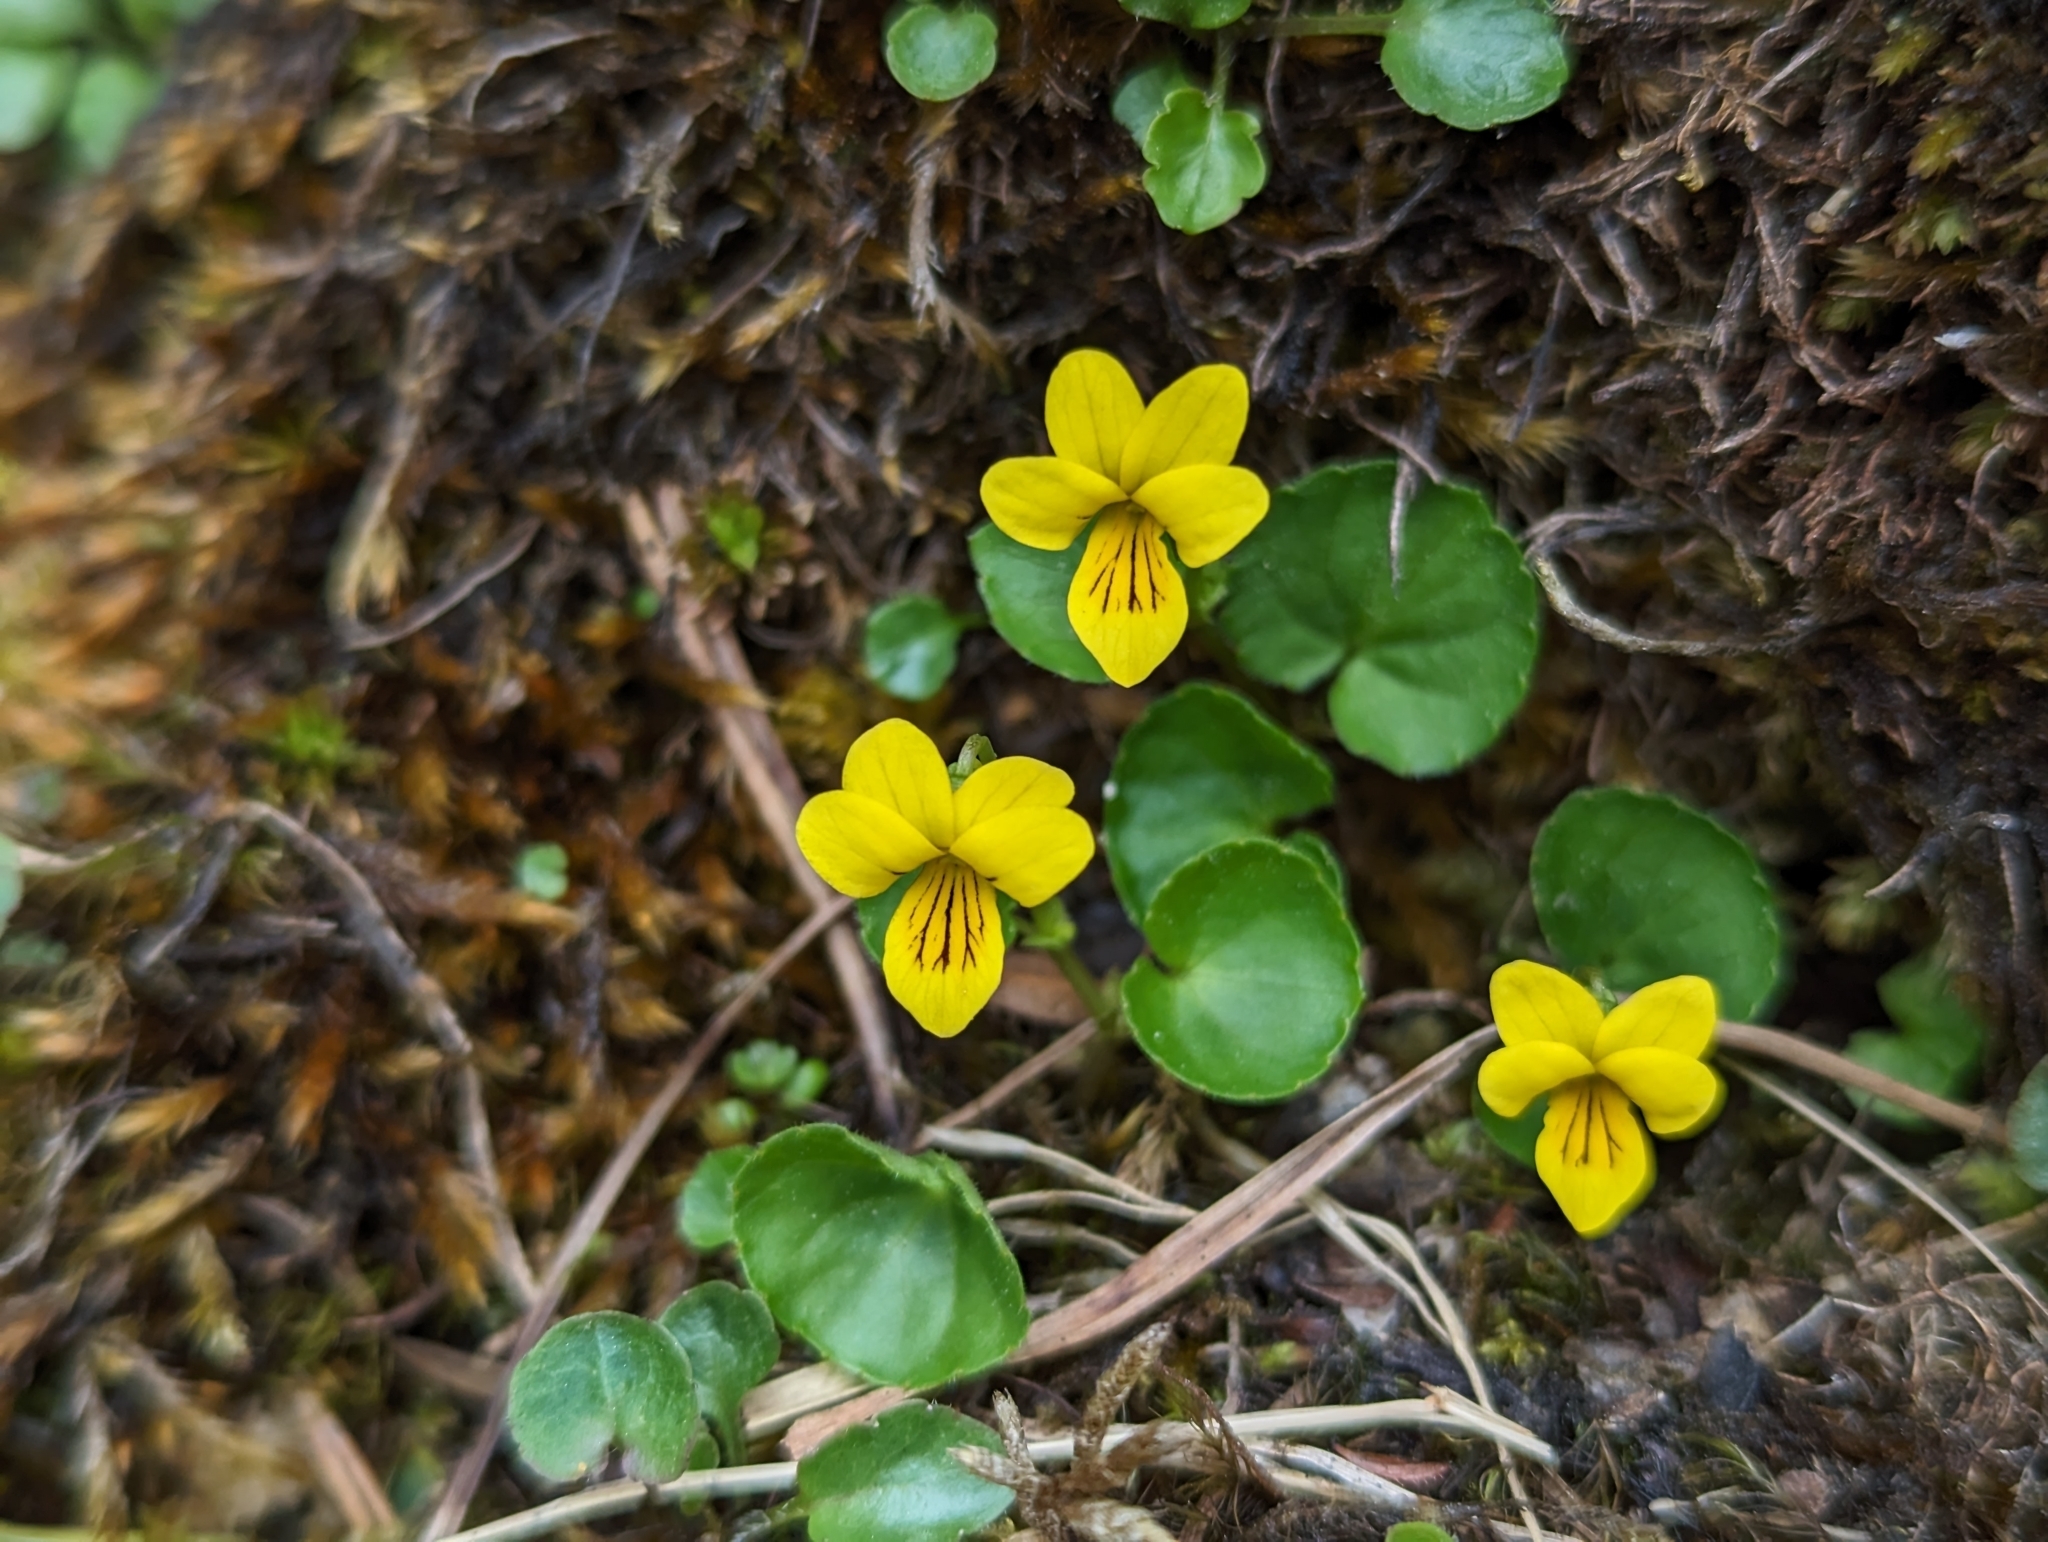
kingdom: Plantae
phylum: Tracheophyta
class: Magnoliopsida
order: Malpighiales
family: Violaceae
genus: Viola
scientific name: Viola biflora
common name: Alpine yellow violet
